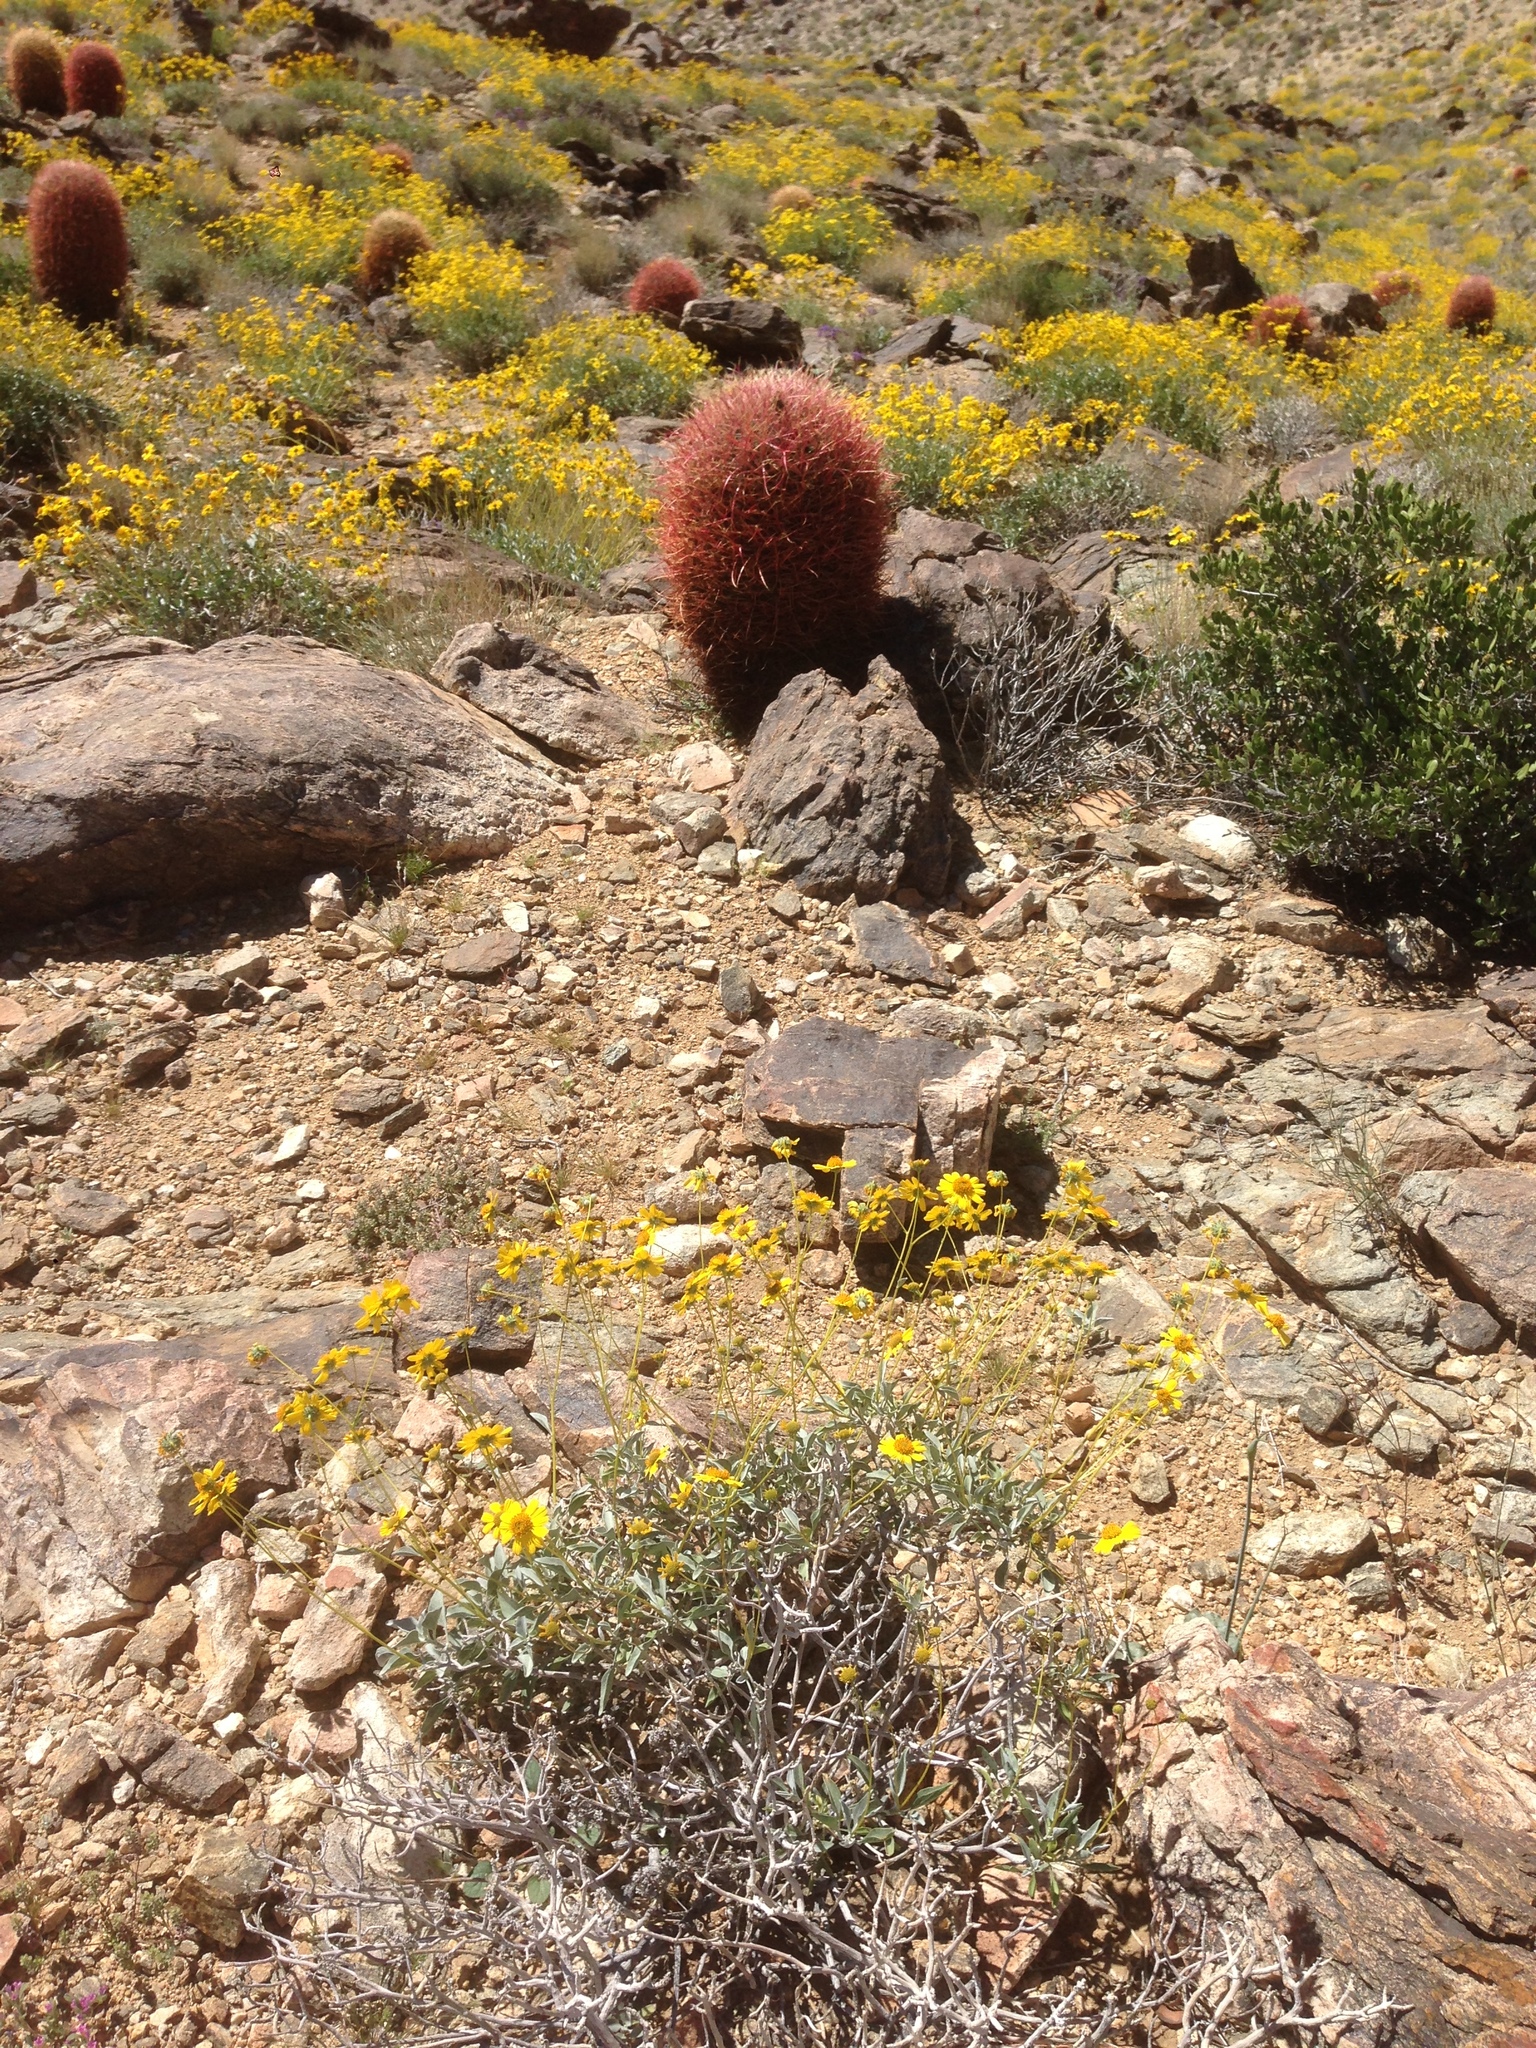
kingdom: Plantae
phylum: Tracheophyta
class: Magnoliopsida
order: Asterales
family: Asteraceae
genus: Encelia
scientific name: Encelia farinosa
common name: Brittlebush
